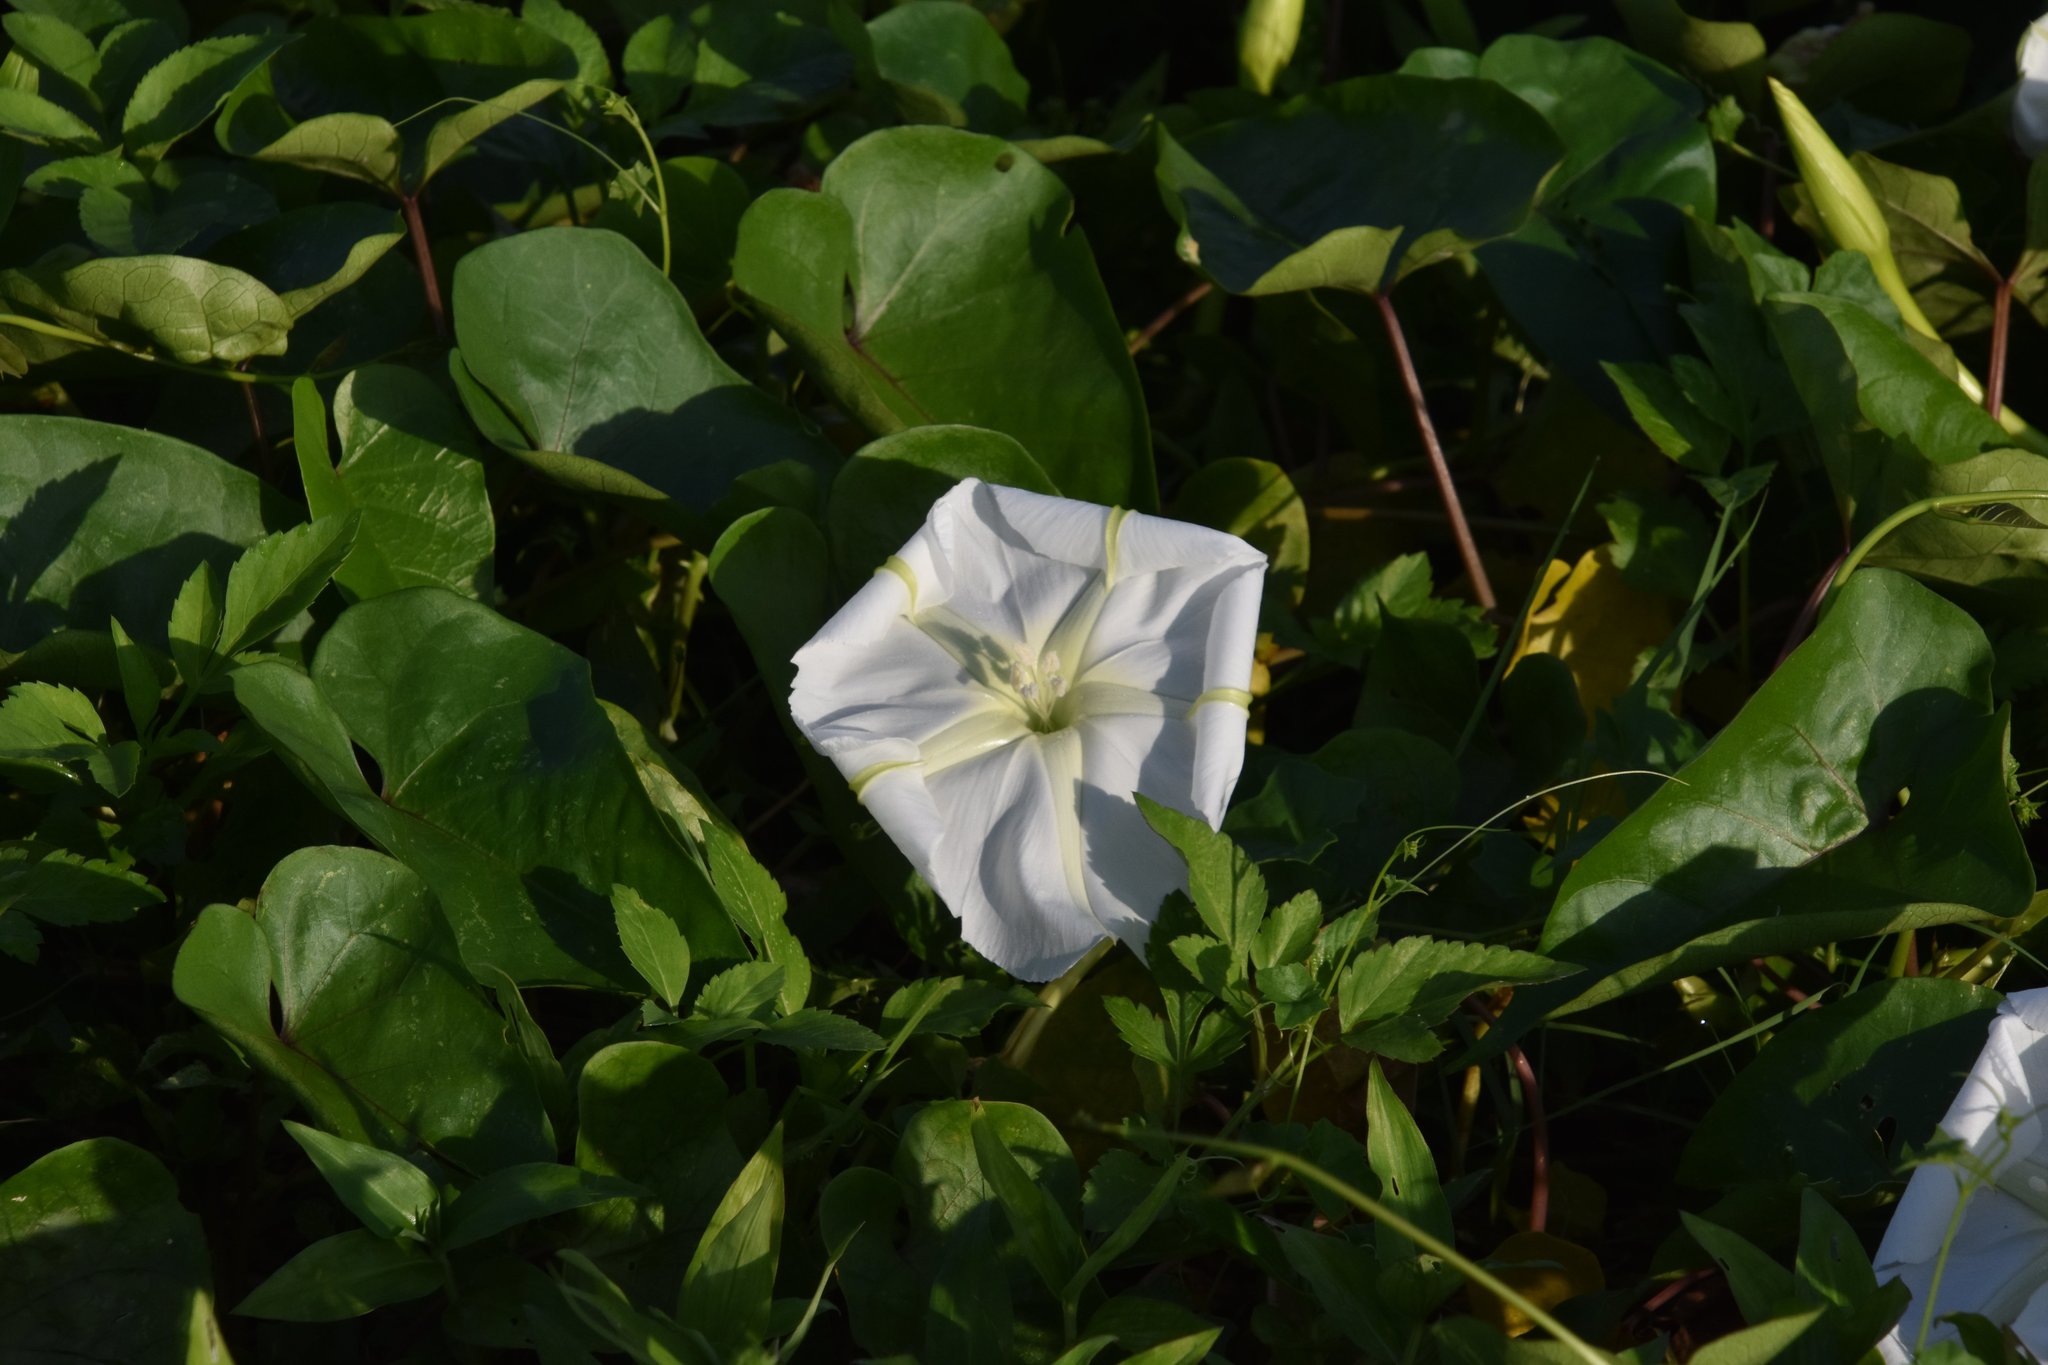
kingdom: Plantae
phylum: Tracheophyta
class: Magnoliopsida
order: Solanales
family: Convolvulaceae
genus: Ipomoea
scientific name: Ipomoea alba
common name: Moonflower
